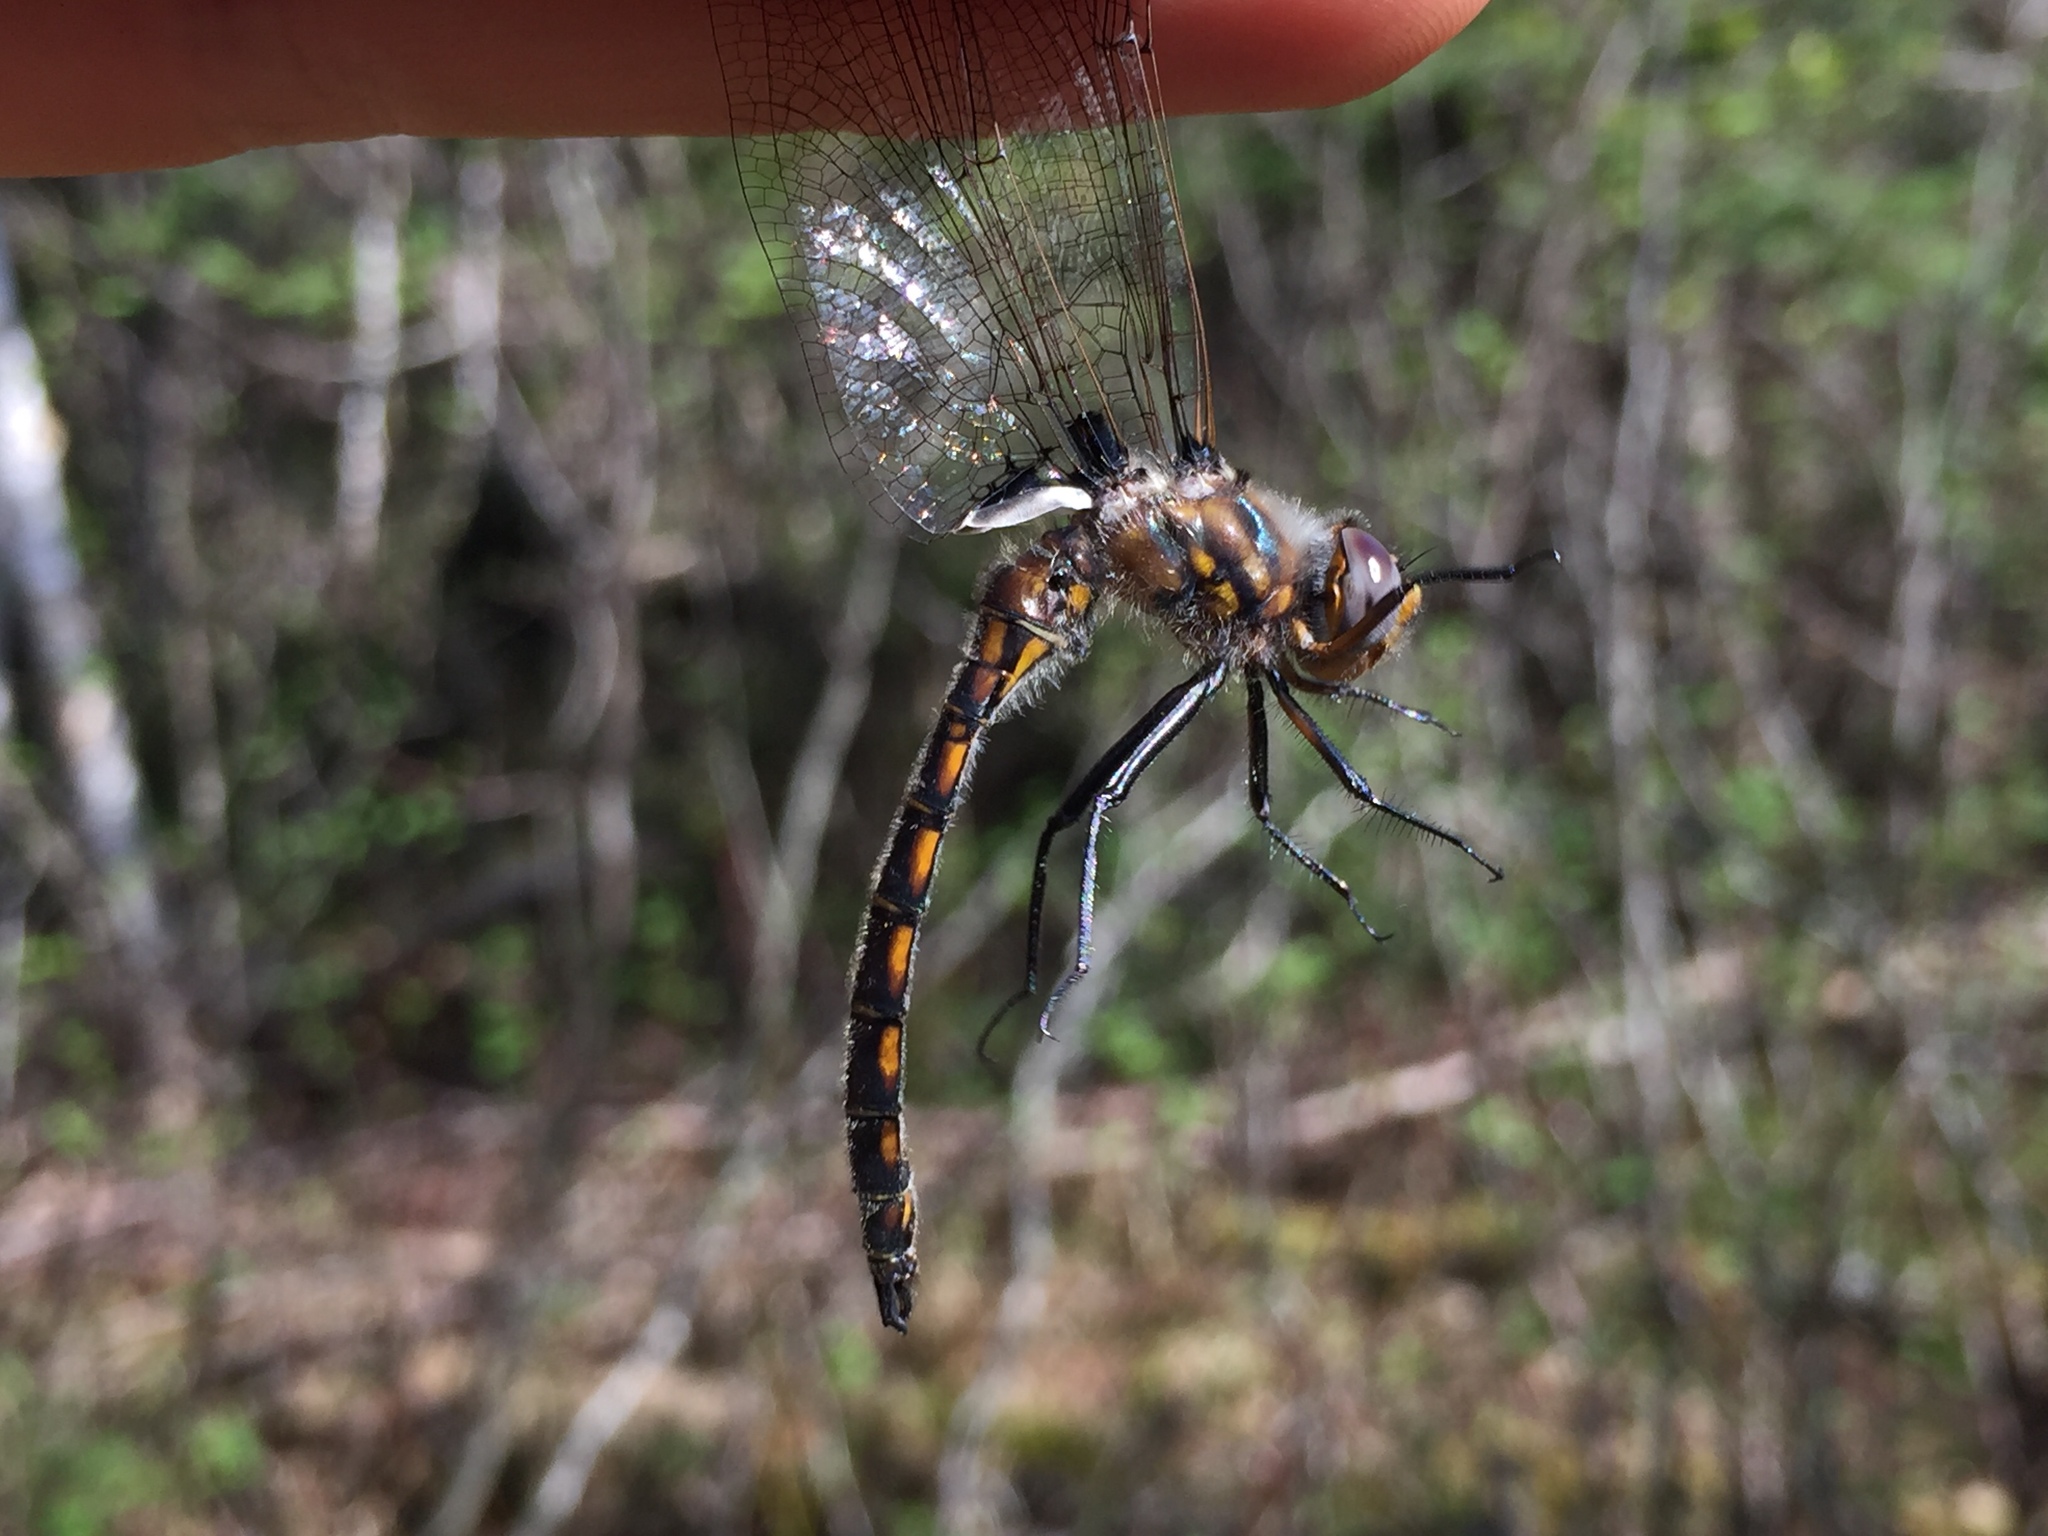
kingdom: Animalia
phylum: Arthropoda
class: Insecta
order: Odonata
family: Corduliidae
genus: Epitheca
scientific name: Epitheca canis
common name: Beaverpond baskettail
